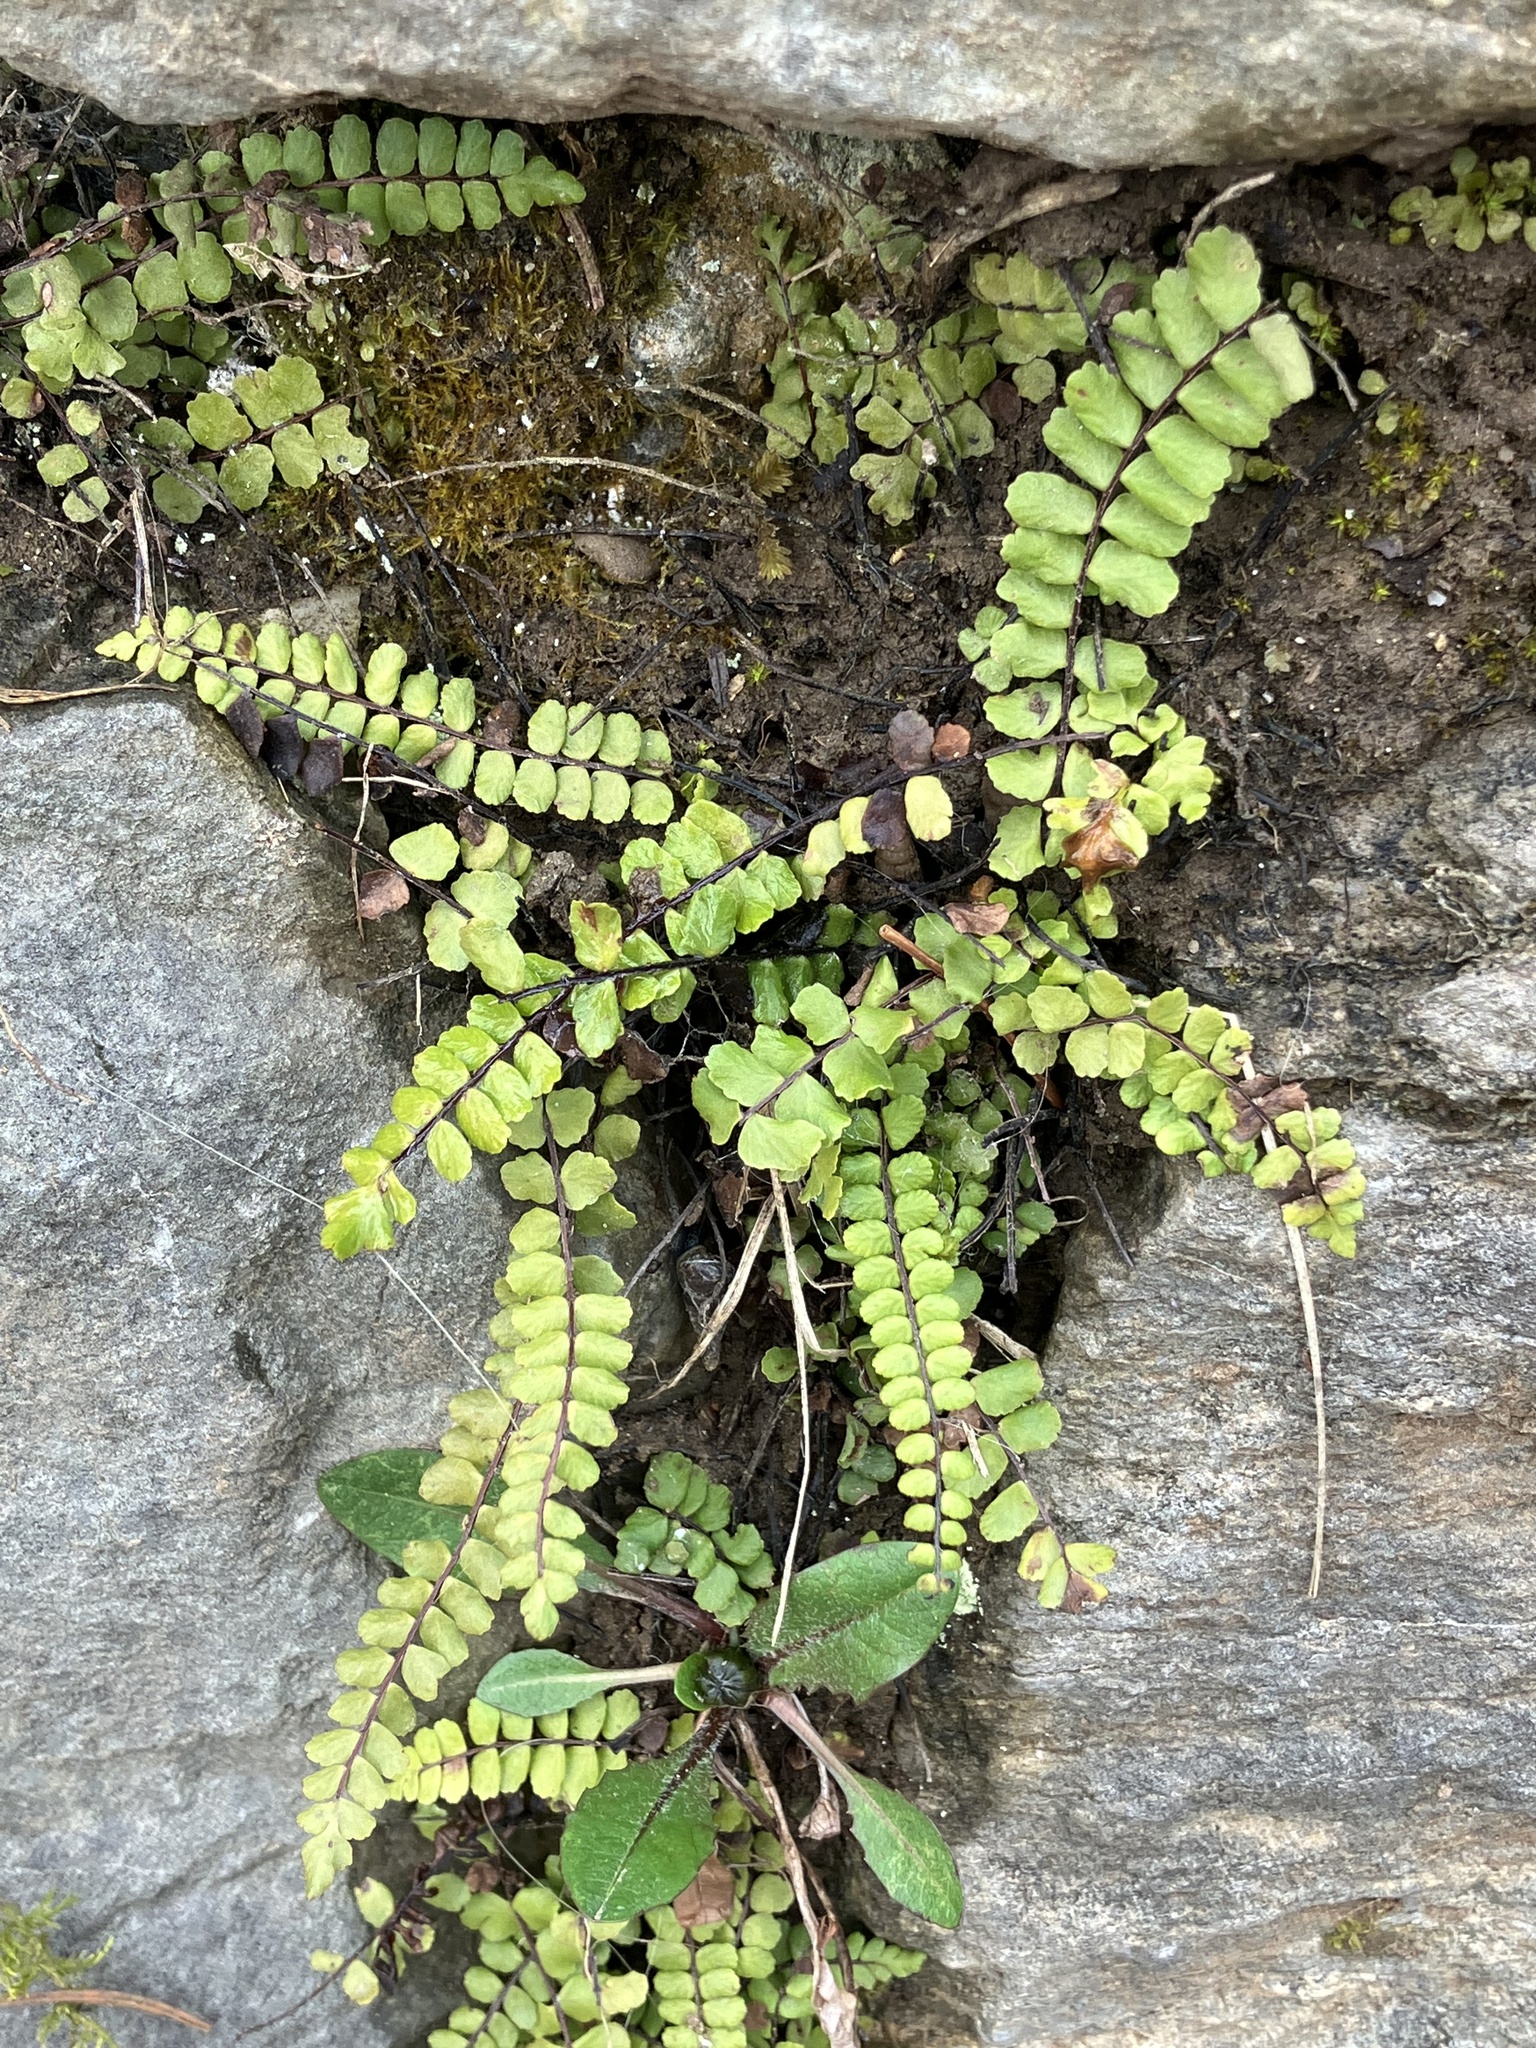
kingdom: Plantae
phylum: Tracheophyta
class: Polypodiopsida
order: Polypodiales
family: Aspleniaceae
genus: Asplenium
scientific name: Asplenium trichomanes
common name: Maidenhair spleenwort
